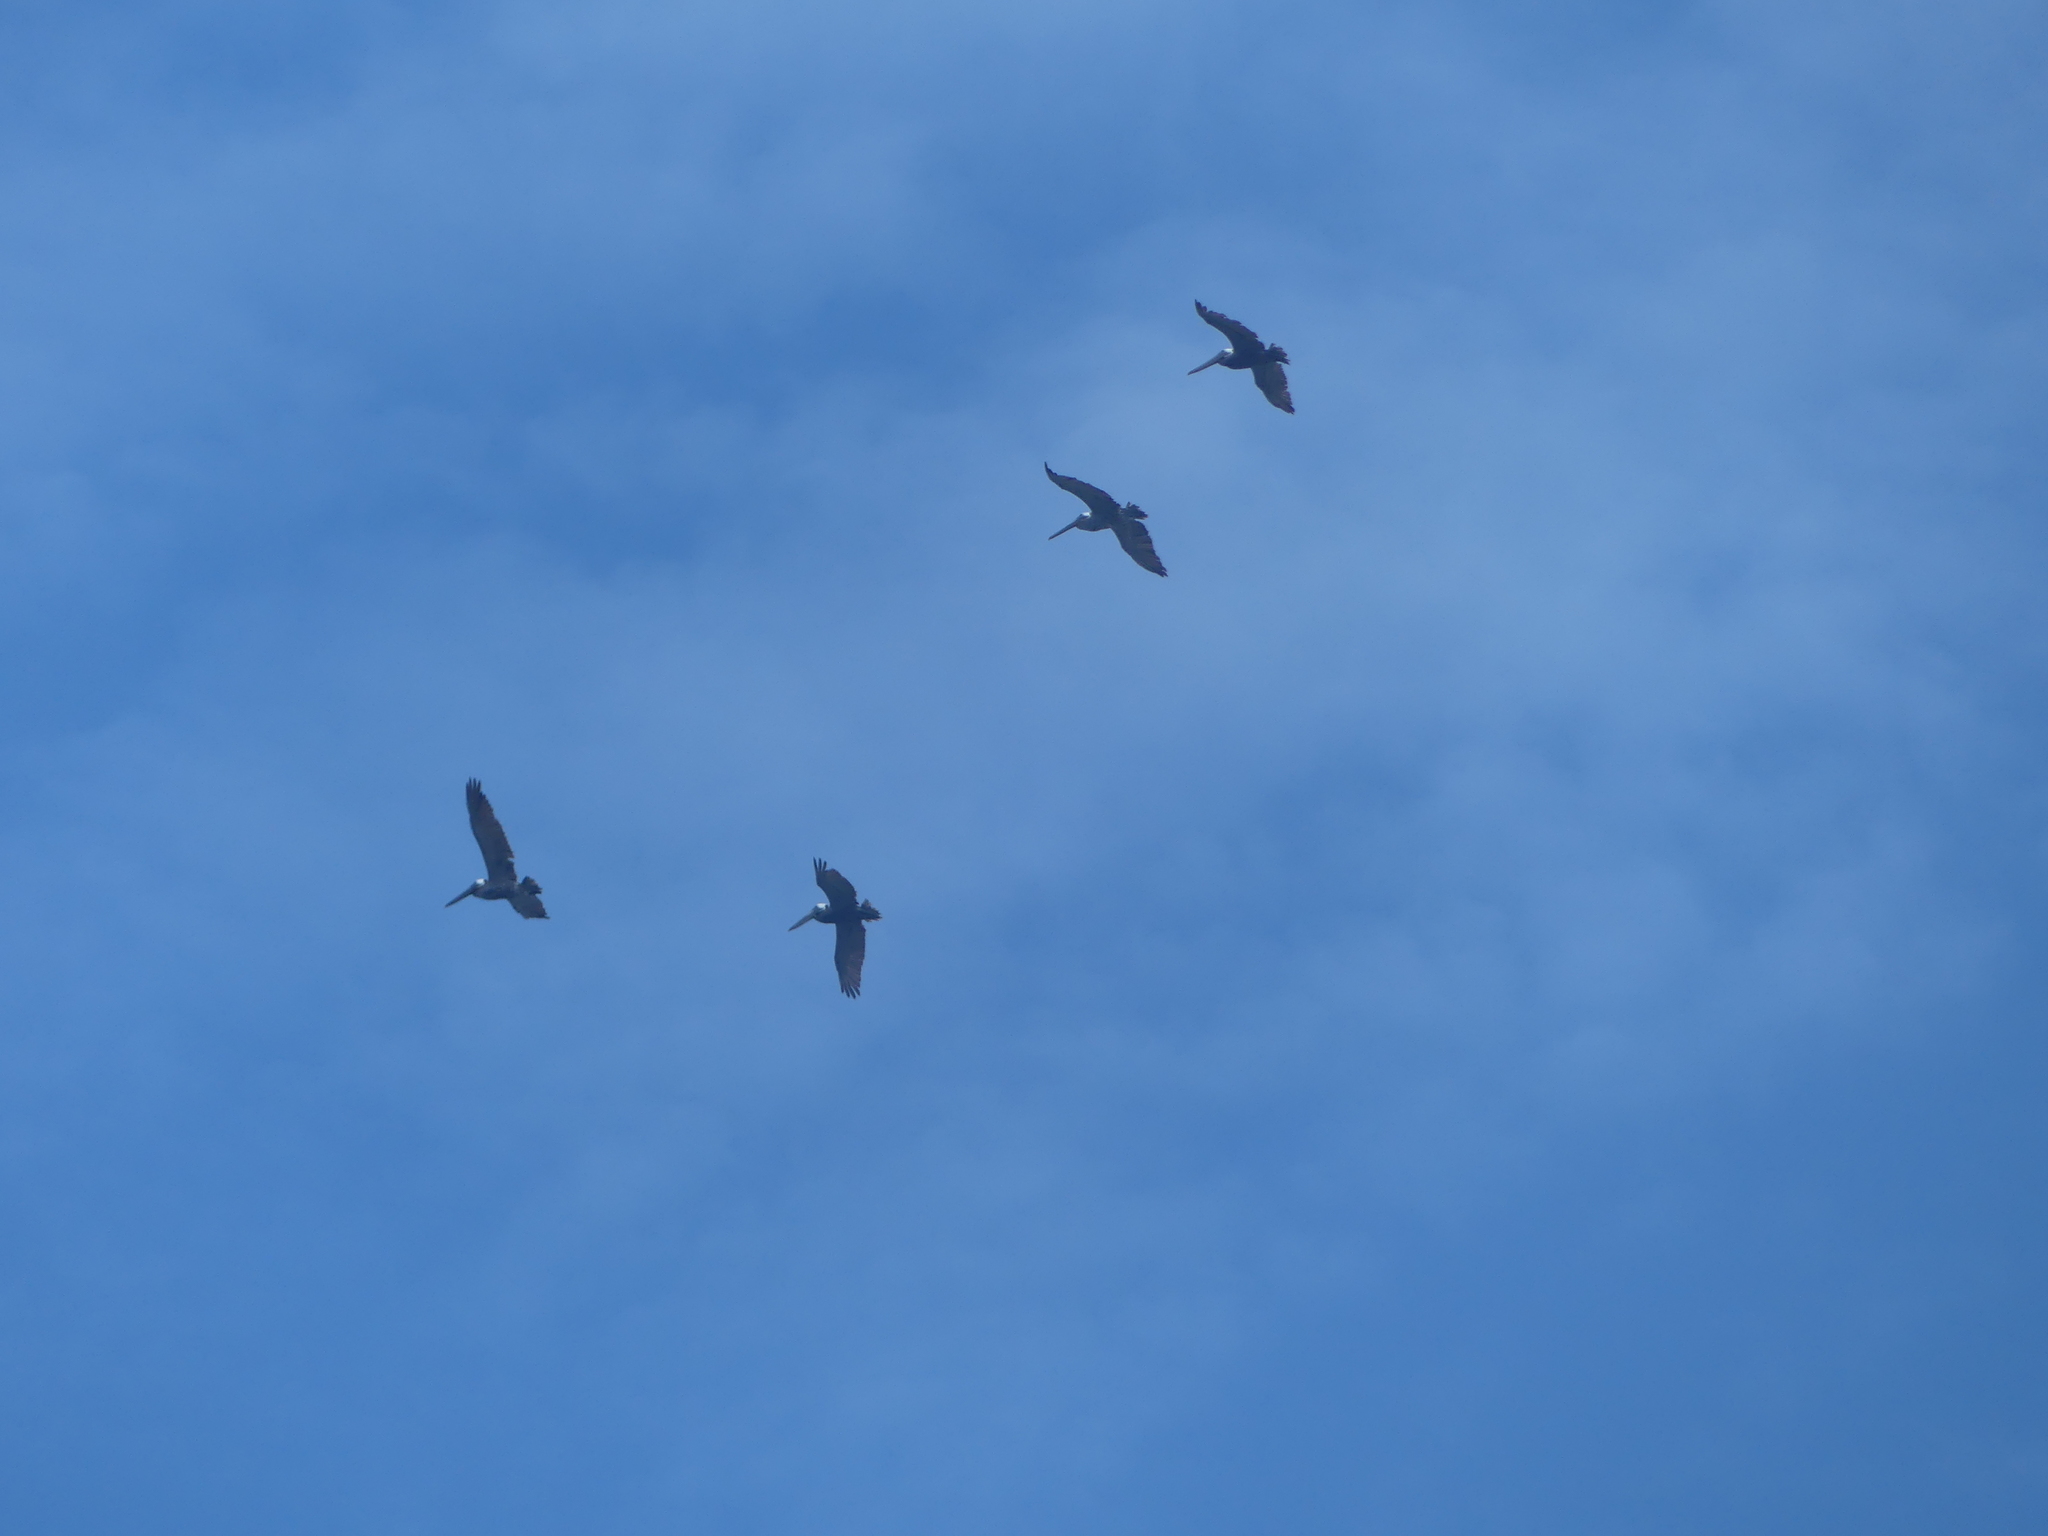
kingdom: Animalia
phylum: Chordata
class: Aves
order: Pelecaniformes
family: Pelecanidae
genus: Pelecanus
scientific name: Pelecanus occidentalis
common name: Brown pelican
